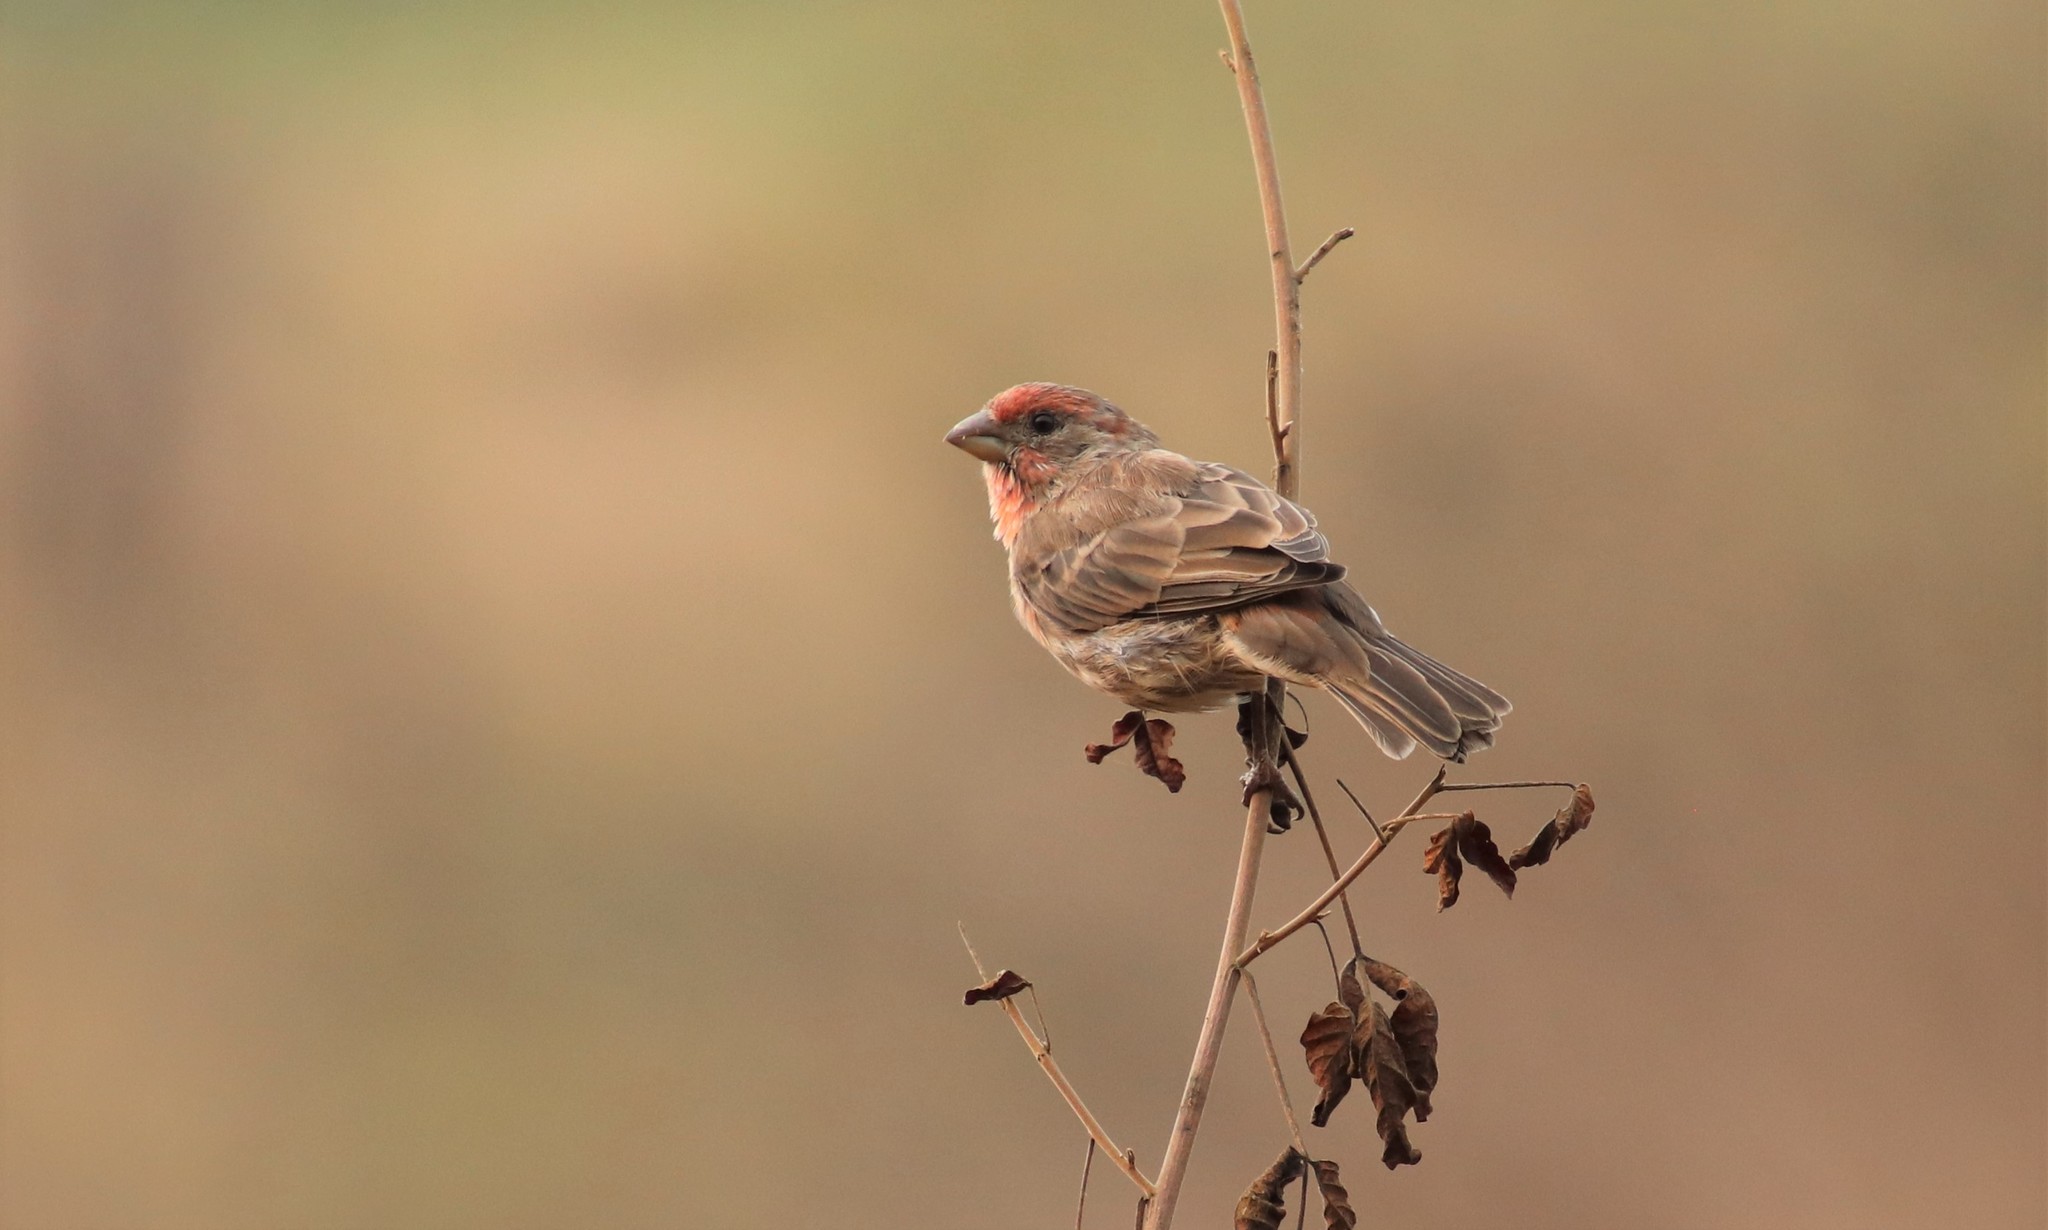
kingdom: Animalia
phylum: Chordata
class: Aves
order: Passeriformes
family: Fringillidae
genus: Haemorhous
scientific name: Haemorhous mexicanus
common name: House finch
